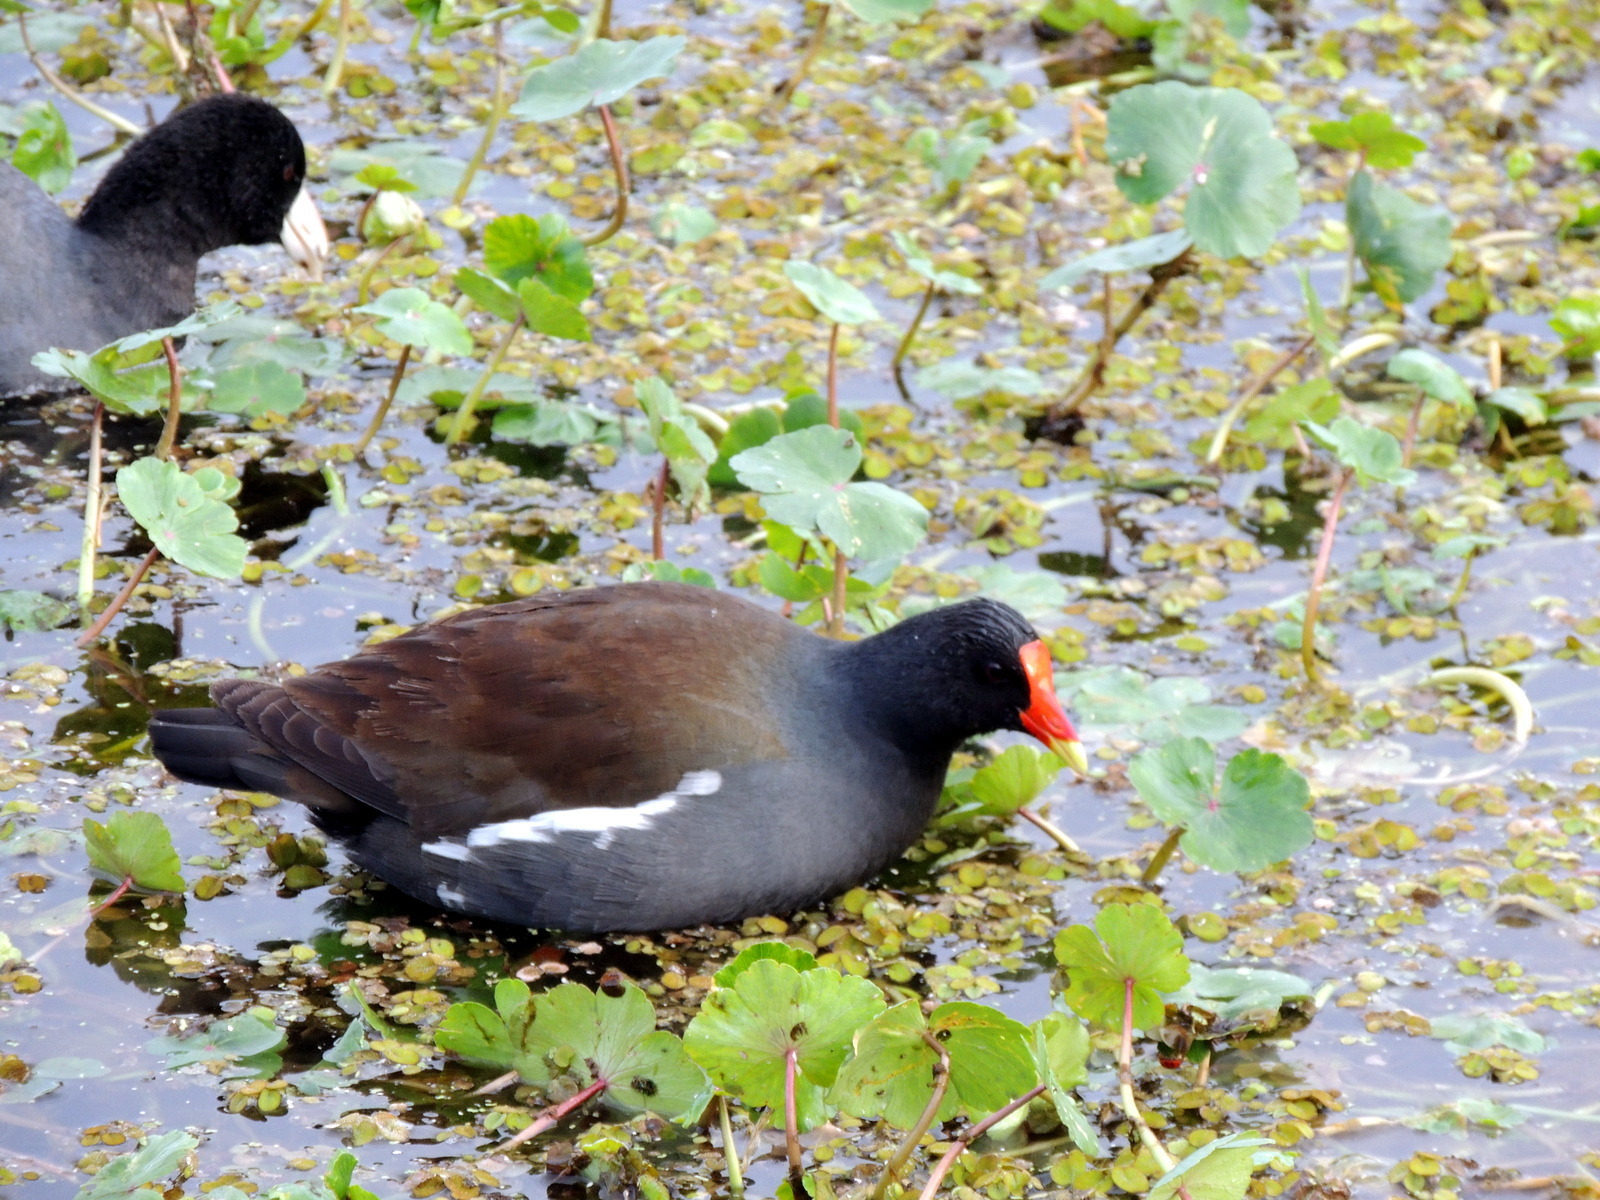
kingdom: Animalia
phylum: Chordata
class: Aves
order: Gruiformes
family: Rallidae
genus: Gallinula
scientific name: Gallinula chloropus
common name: Common moorhen
